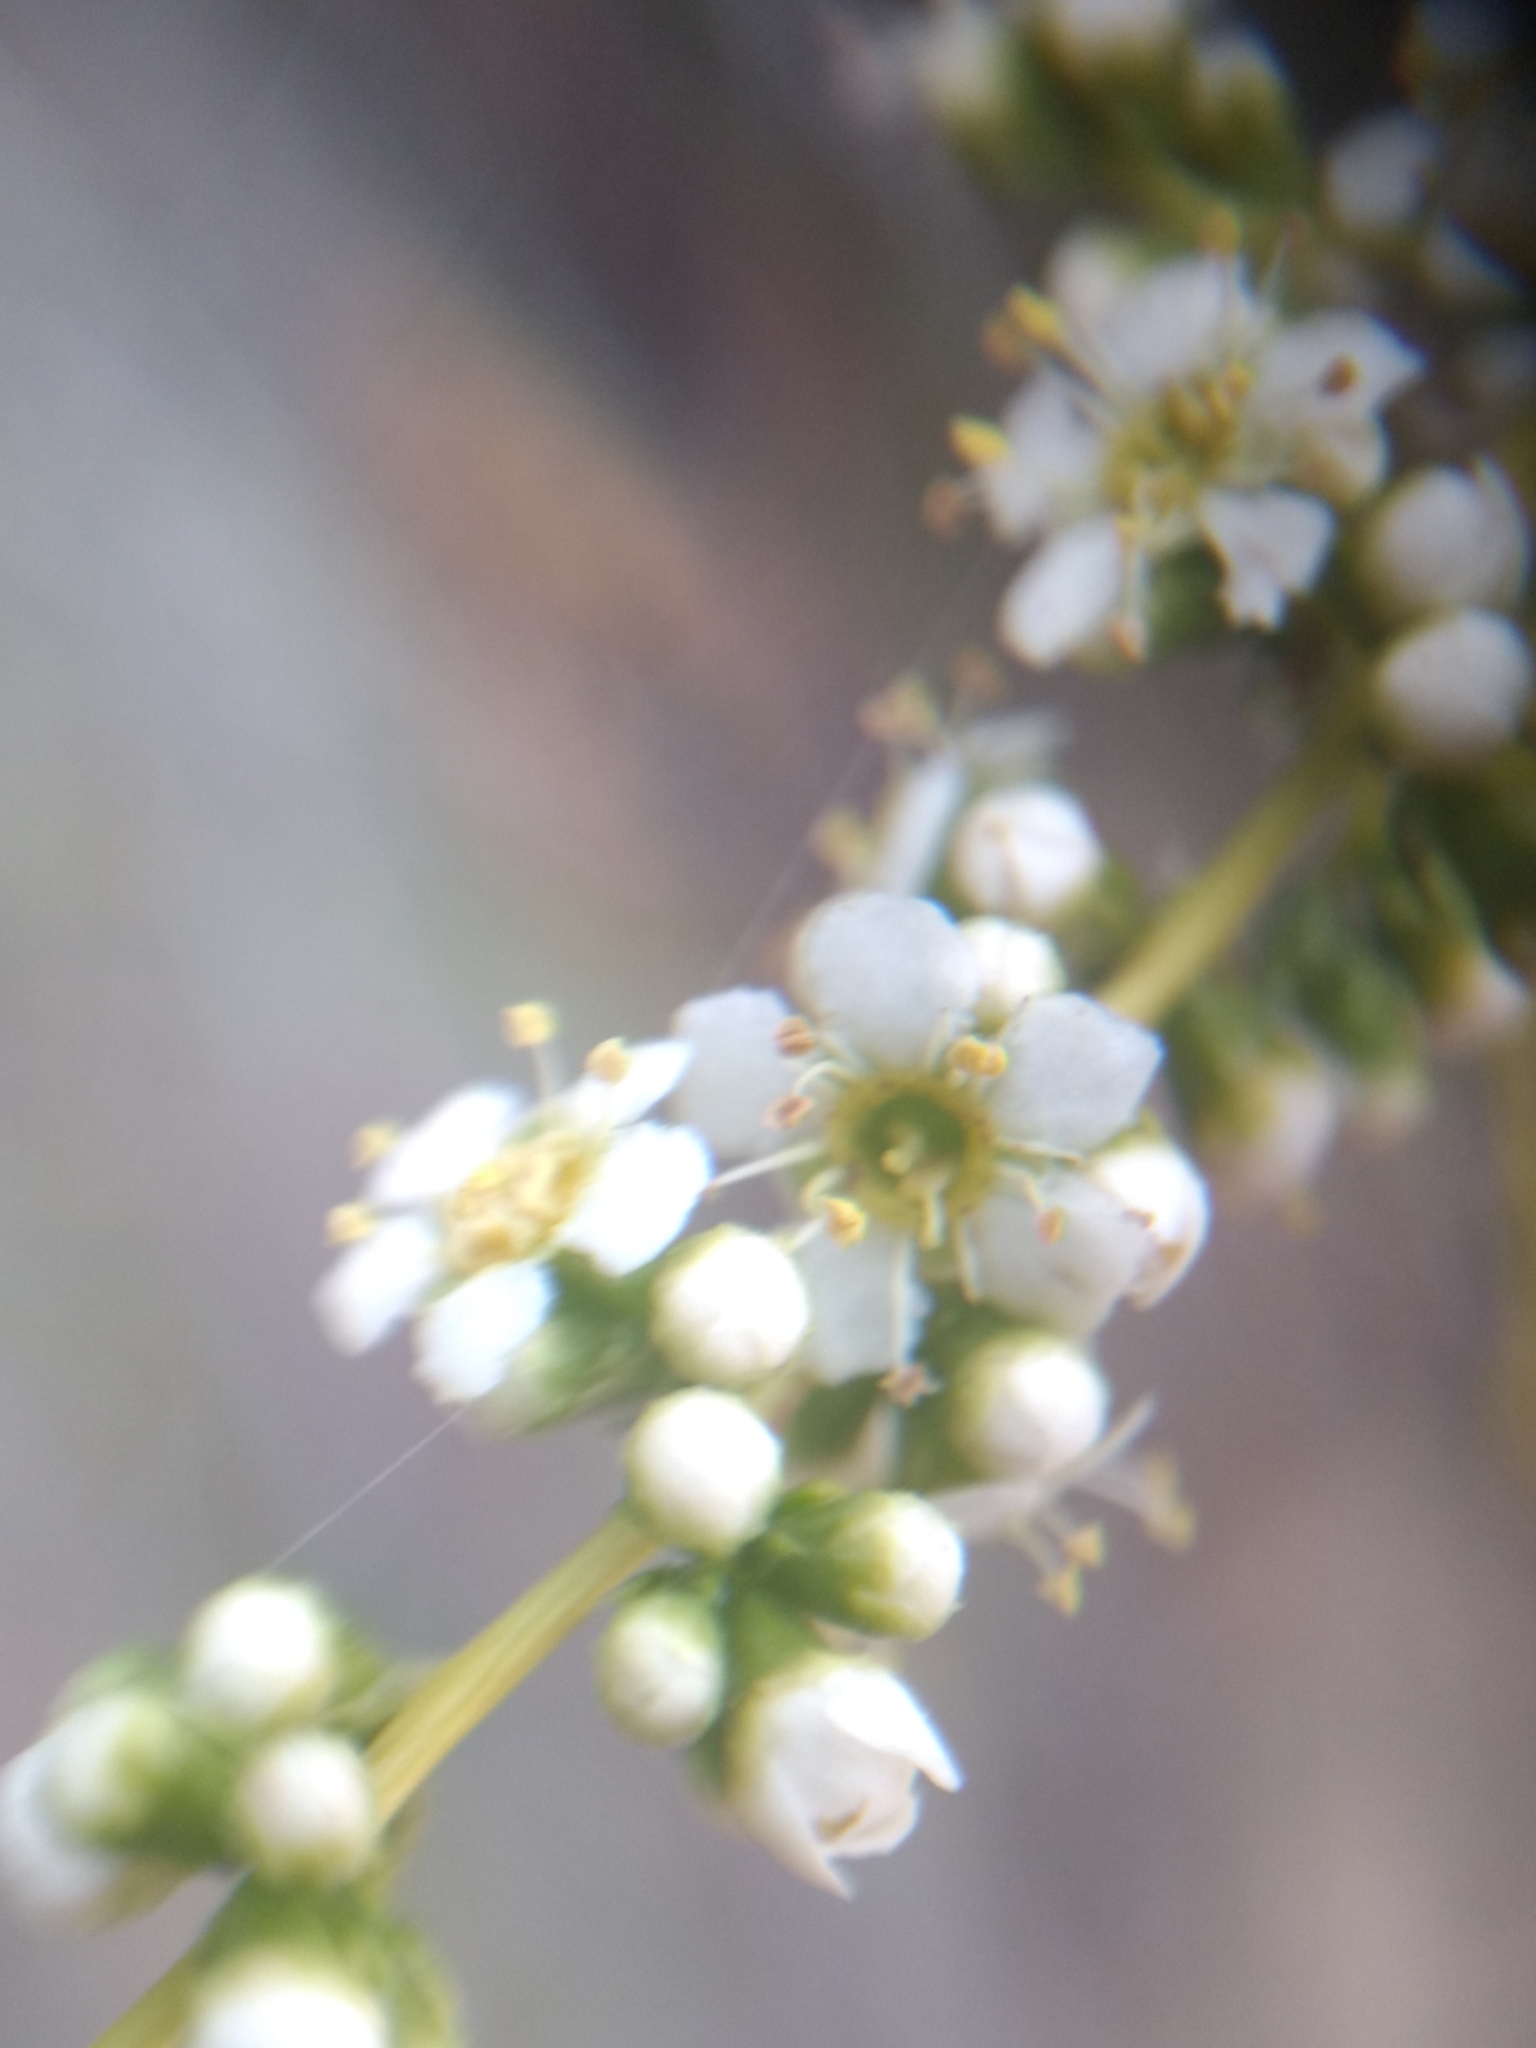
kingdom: Plantae
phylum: Tracheophyta
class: Magnoliopsida
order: Rosales
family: Rosaceae
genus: Adenostoma
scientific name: Adenostoma fasciculatum
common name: Chamise
